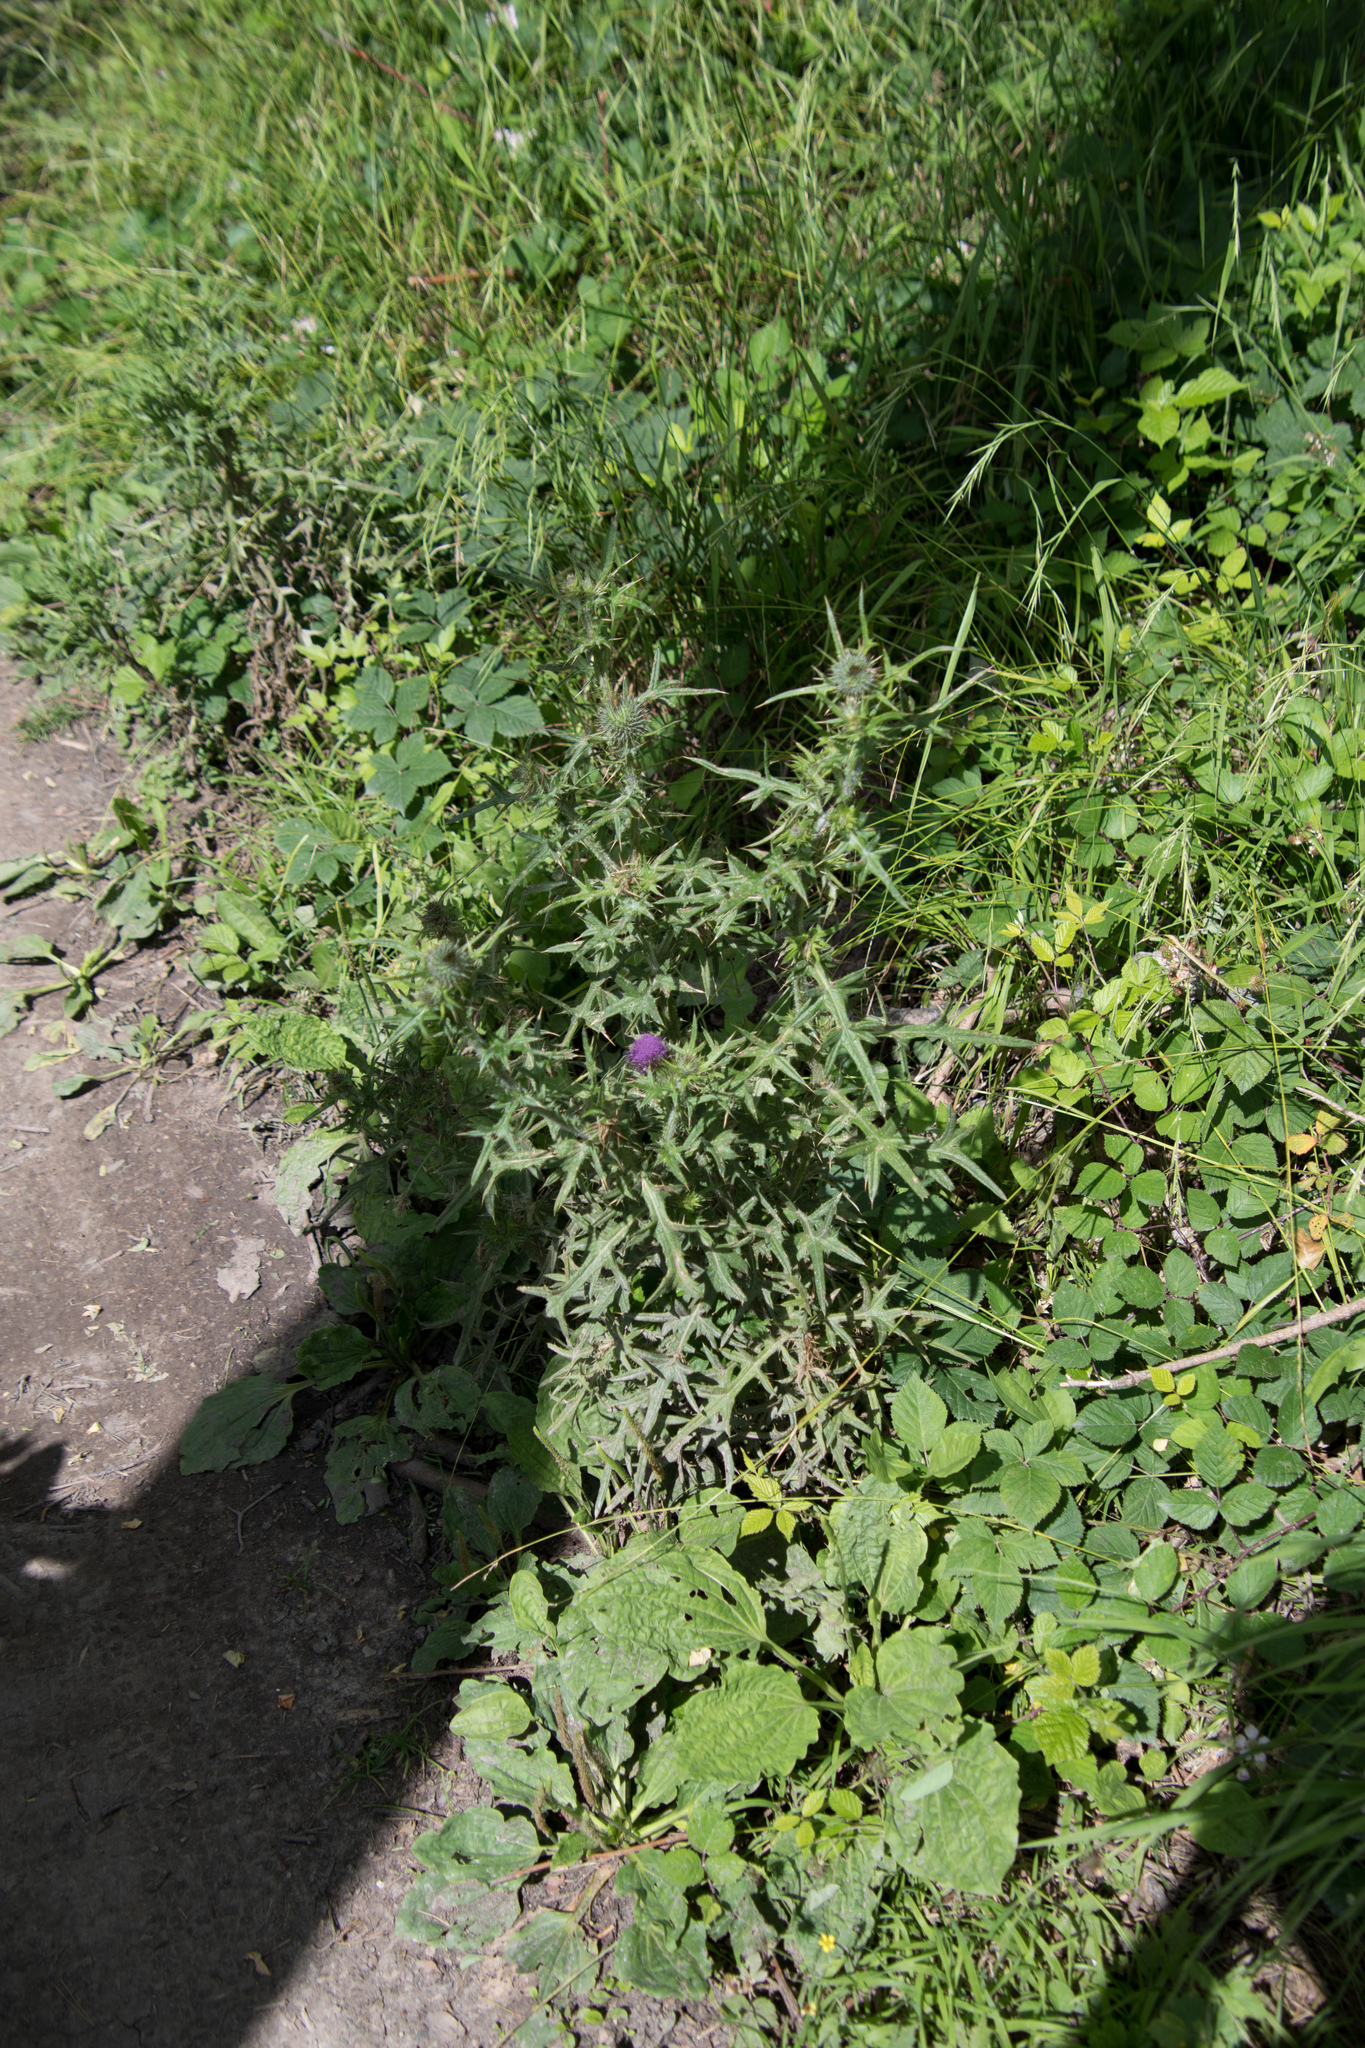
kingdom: Plantae
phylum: Tracheophyta
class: Magnoliopsida
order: Asterales
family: Asteraceae
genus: Cirsium
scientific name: Cirsium vulgare
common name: Bull thistle
